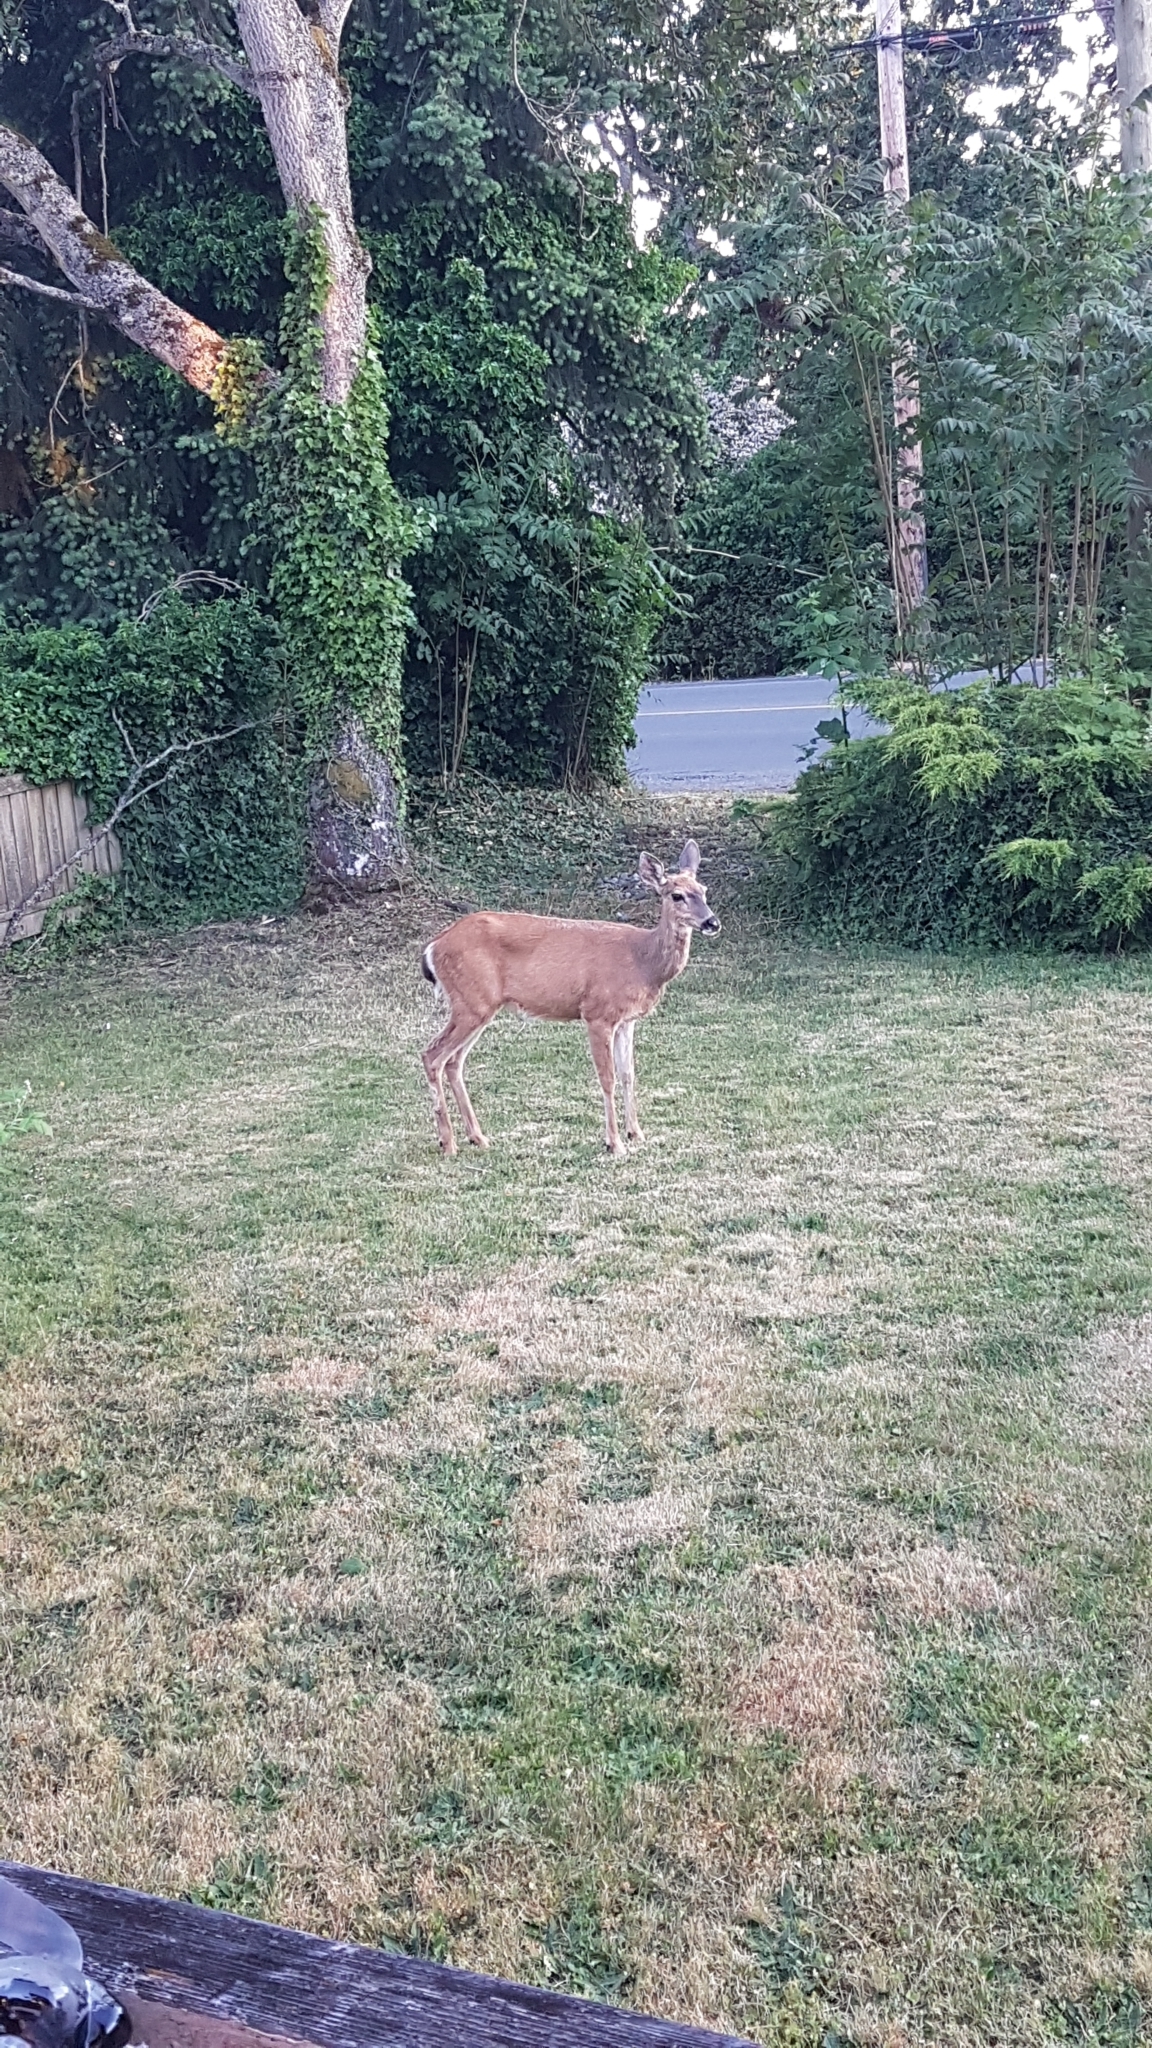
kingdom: Animalia
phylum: Chordata
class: Mammalia
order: Artiodactyla
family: Cervidae
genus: Odocoileus
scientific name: Odocoileus hemionus
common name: Mule deer
